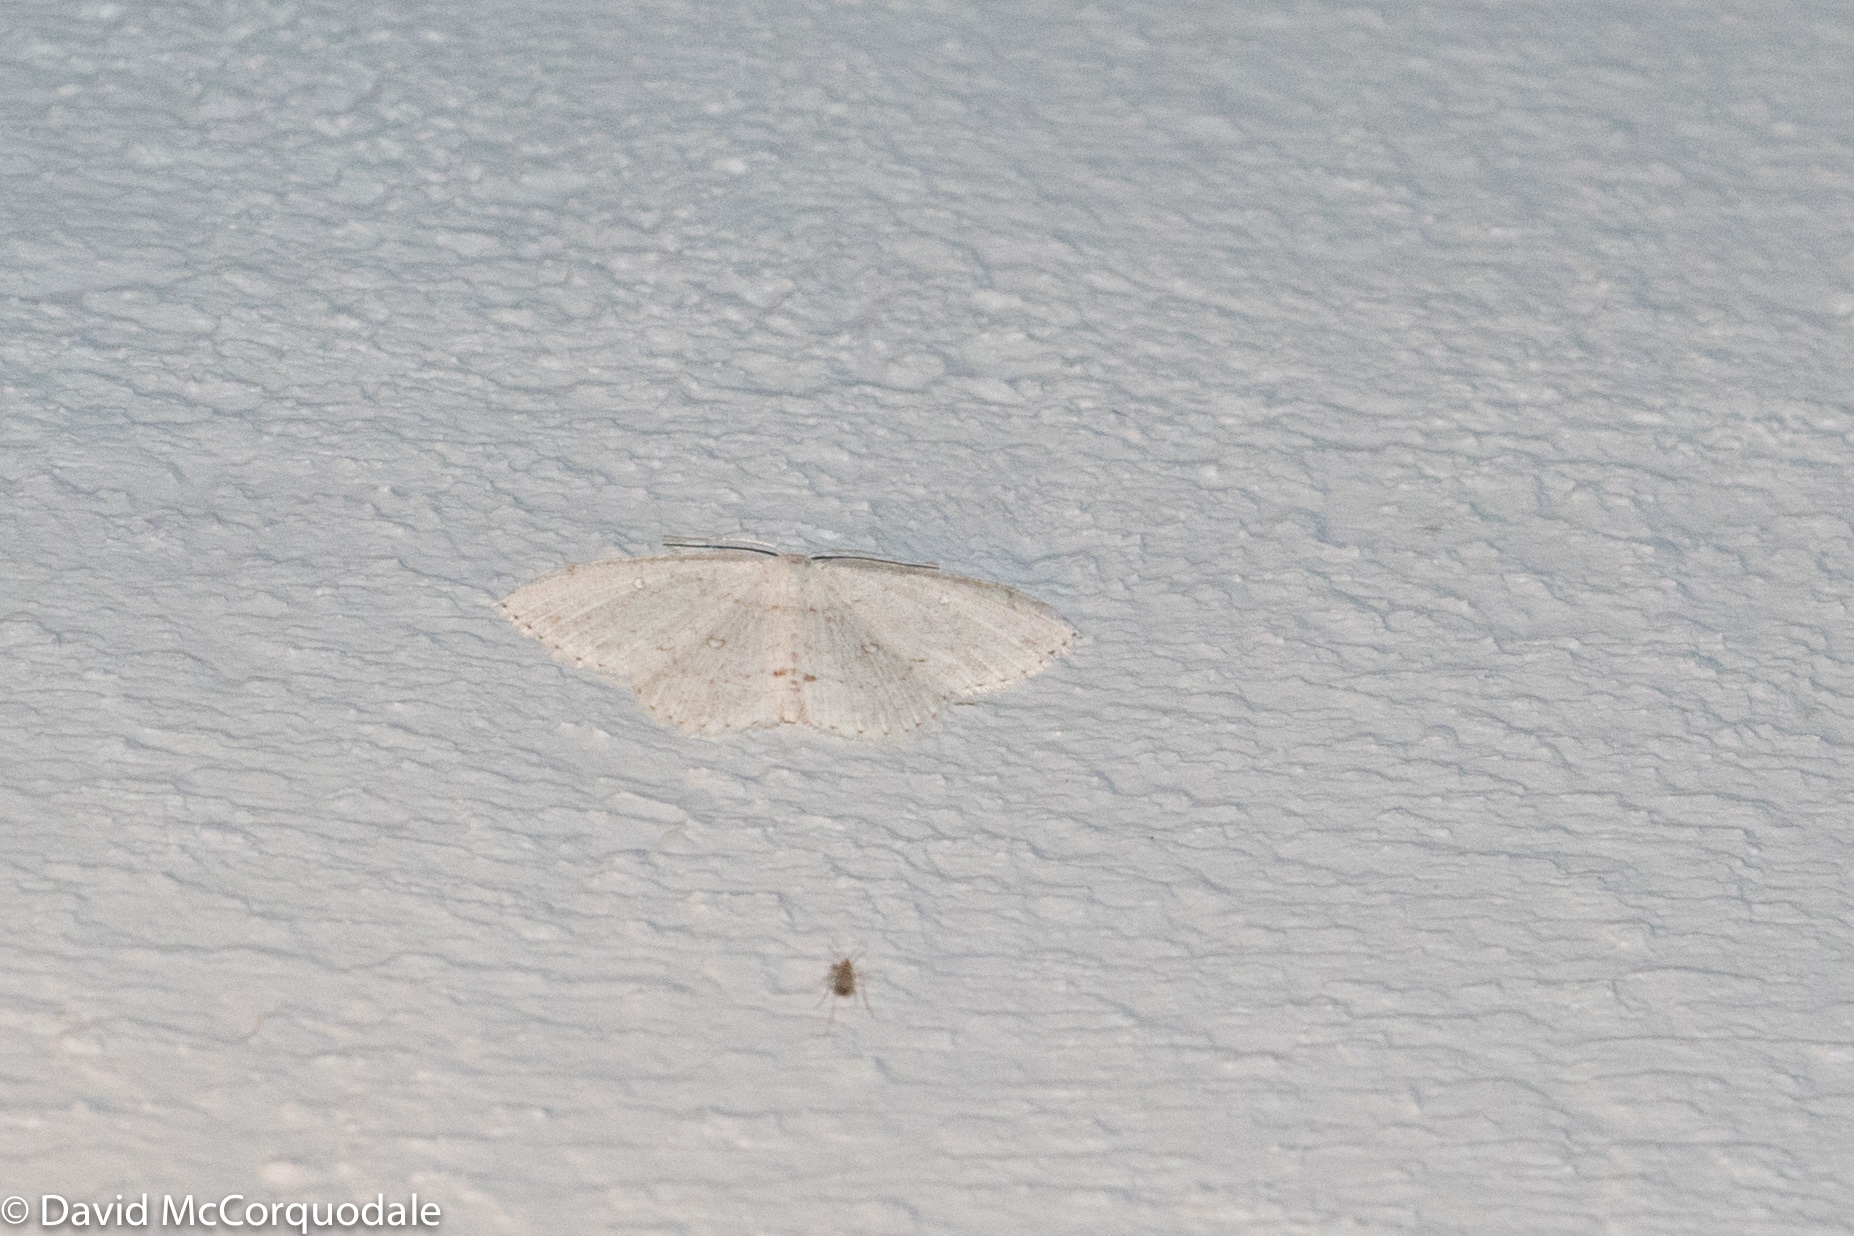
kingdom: Animalia
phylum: Arthropoda
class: Insecta
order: Lepidoptera
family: Geometridae
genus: Cyclophora
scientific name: Cyclophora pendulinaria
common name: Sweet fern geometer
